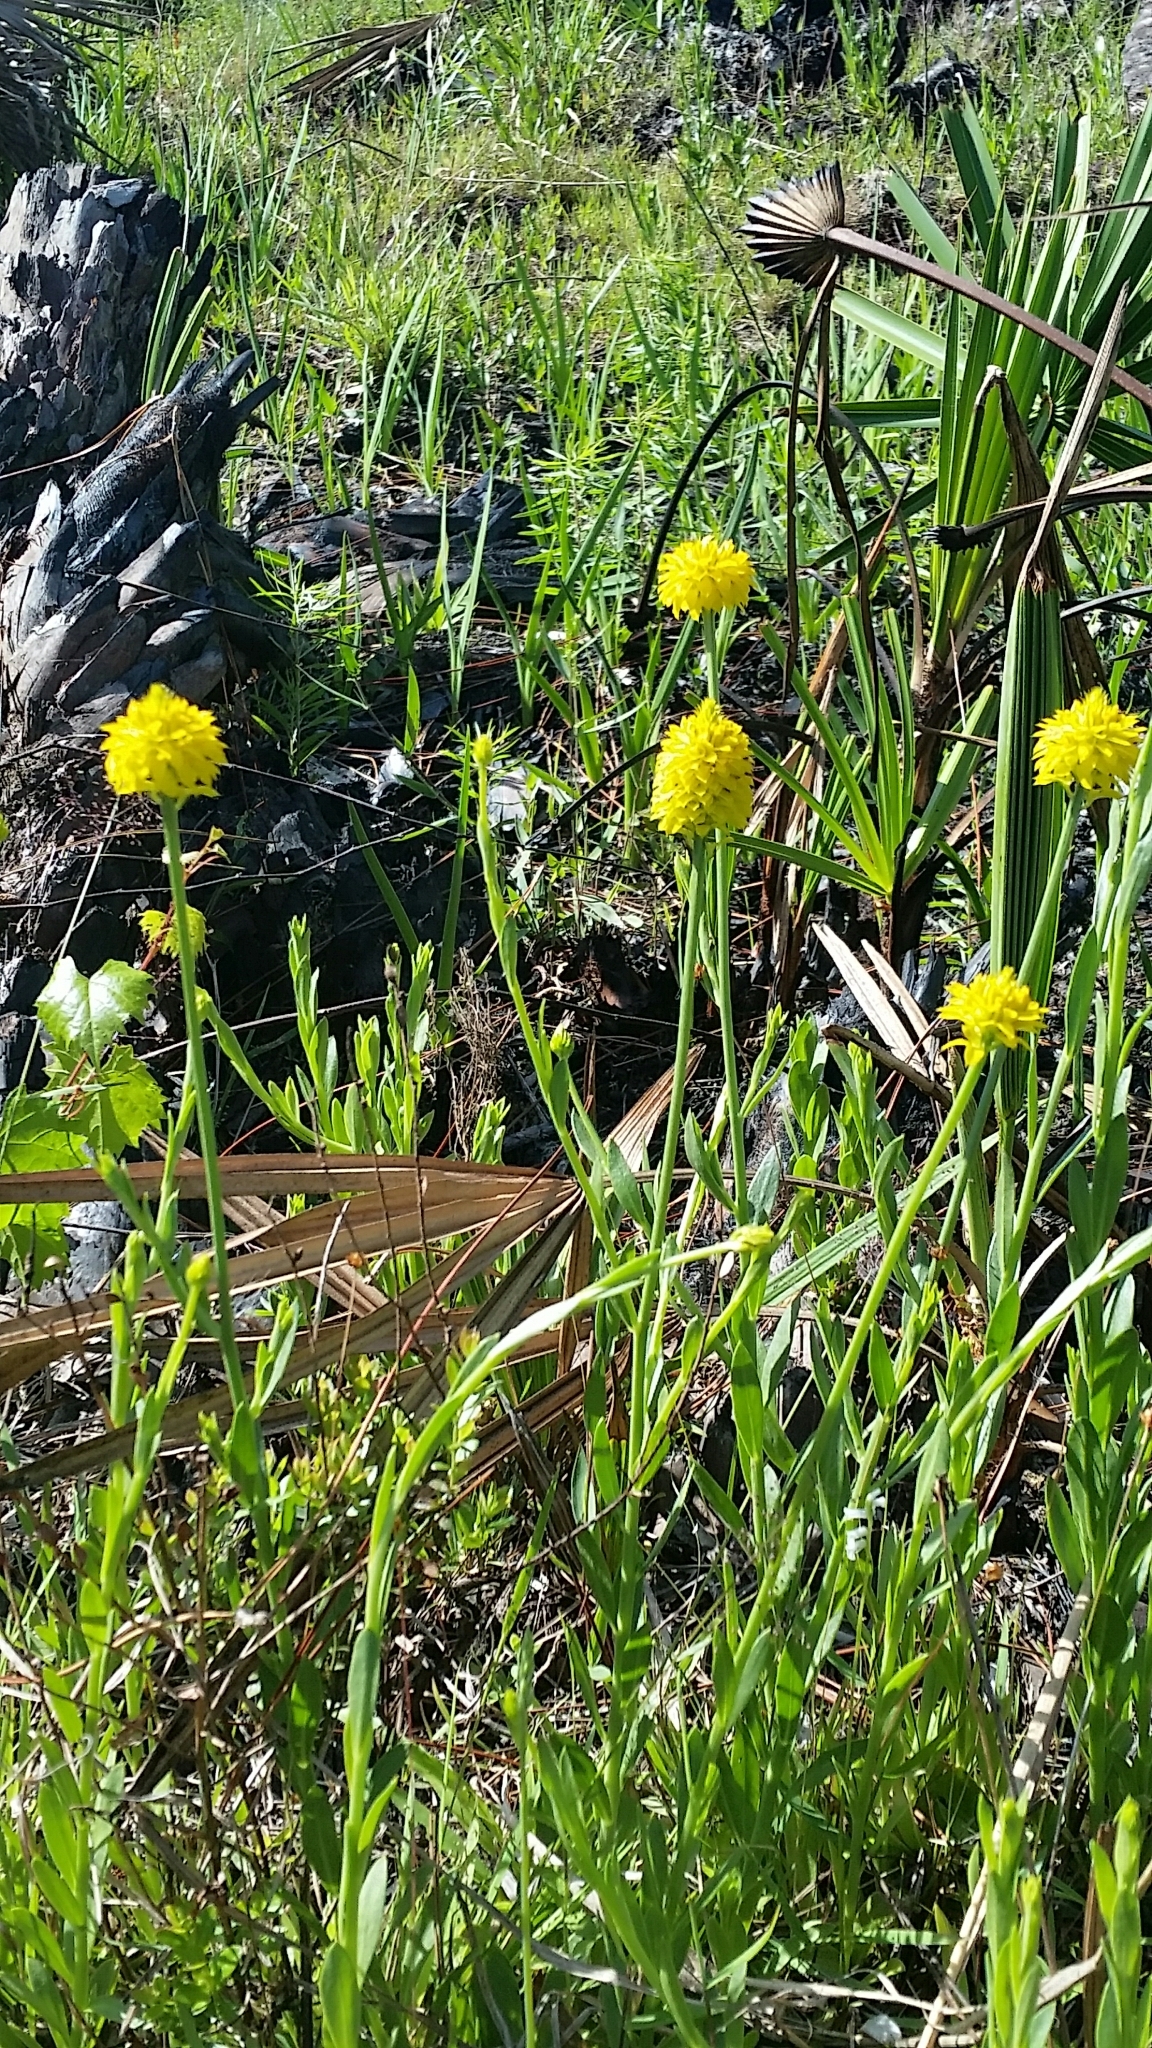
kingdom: Plantae
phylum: Tracheophyta
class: Magnoliopsida
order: Fabales
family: Polygalaceae
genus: Polygala
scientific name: Polygala rugelii
